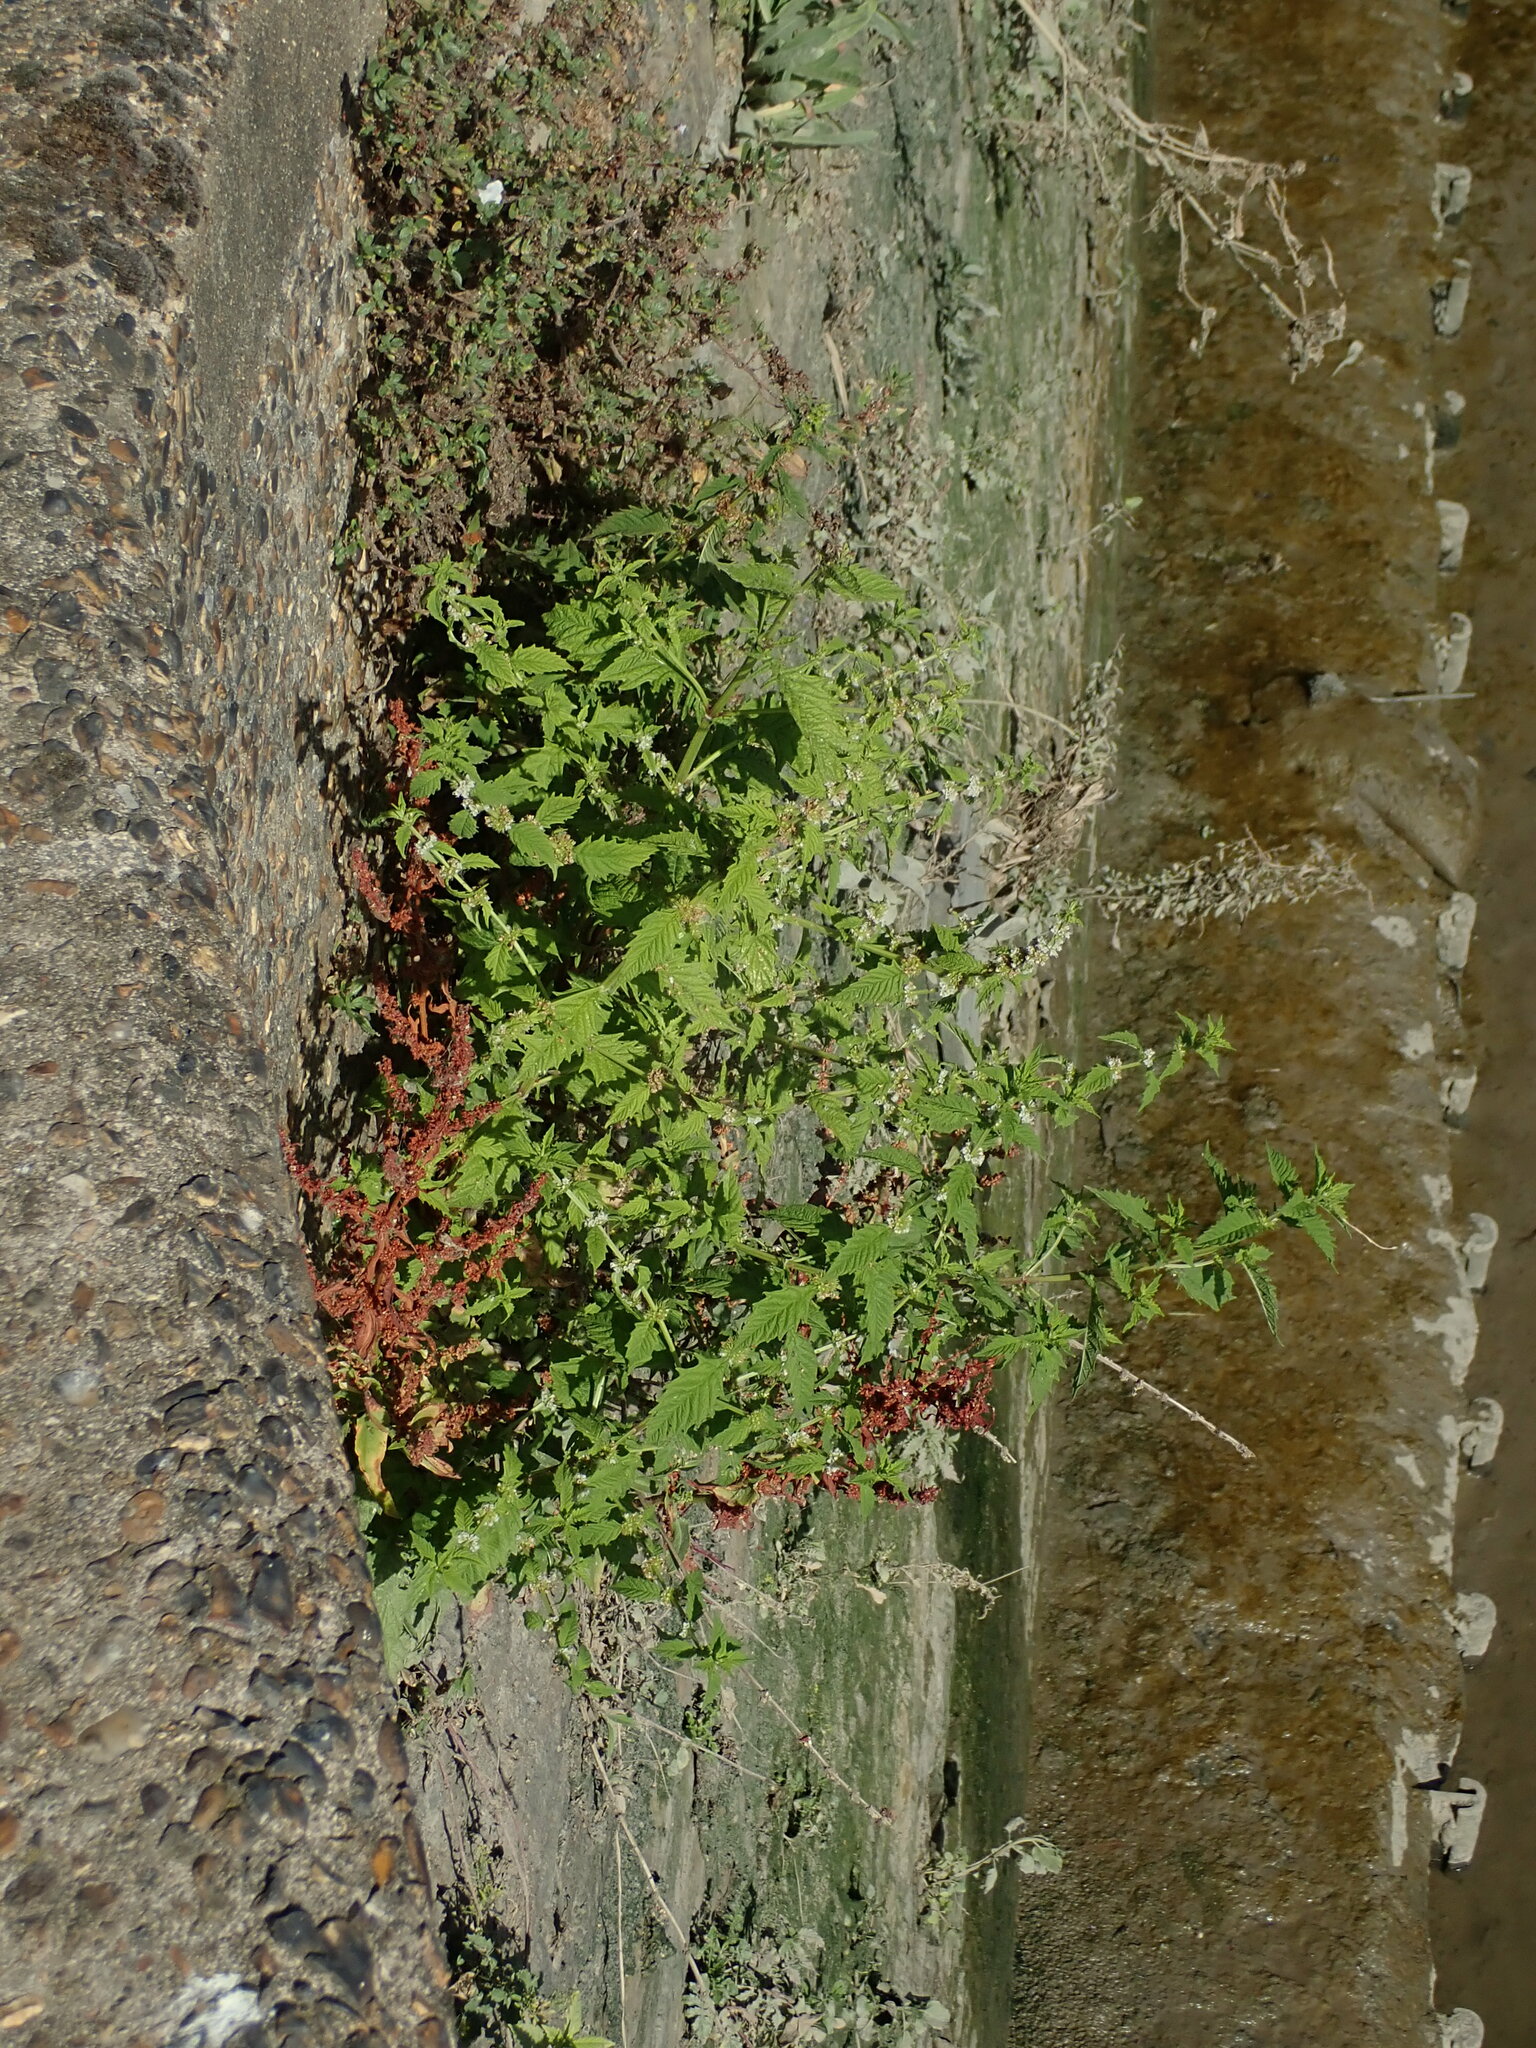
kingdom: Plantae
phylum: Tracheophyta
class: Magnoliopsida
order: Lamiales
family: Lamiaceae
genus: Lycopus
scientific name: Lycopus europaeus
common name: European bugleweed
